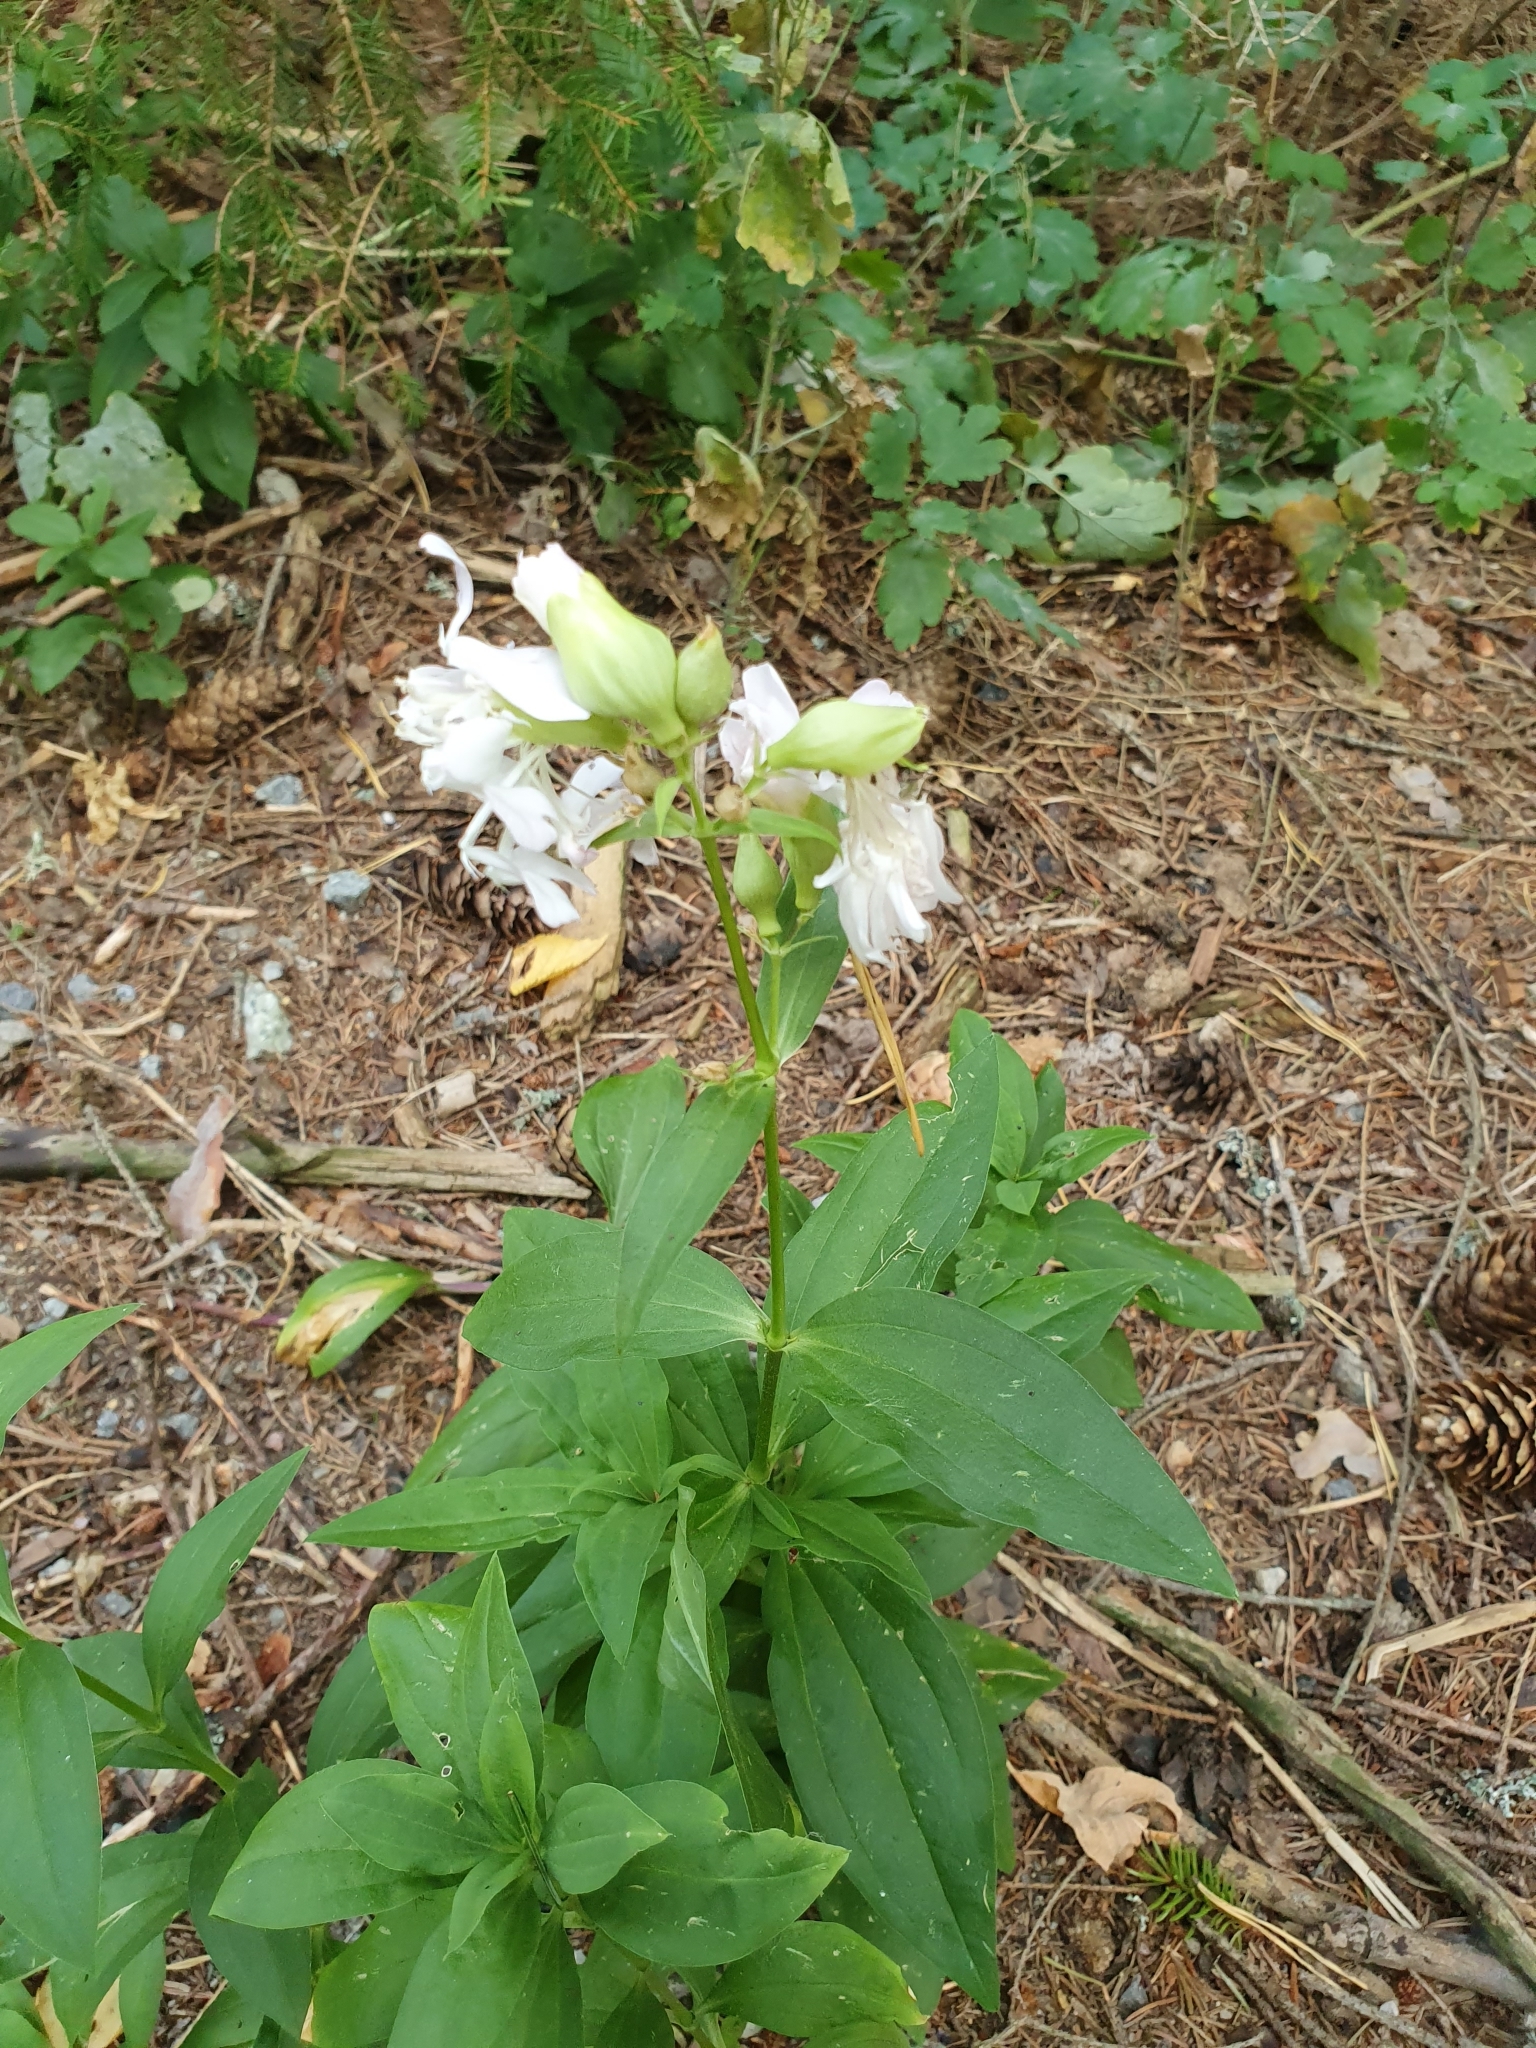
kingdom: Plantae
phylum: Tracheophyta
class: Magnoliopsida
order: Caryophyllales
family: Caryophyllaceae
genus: Saponaria
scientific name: Saponaria officinalis
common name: Soapwort
